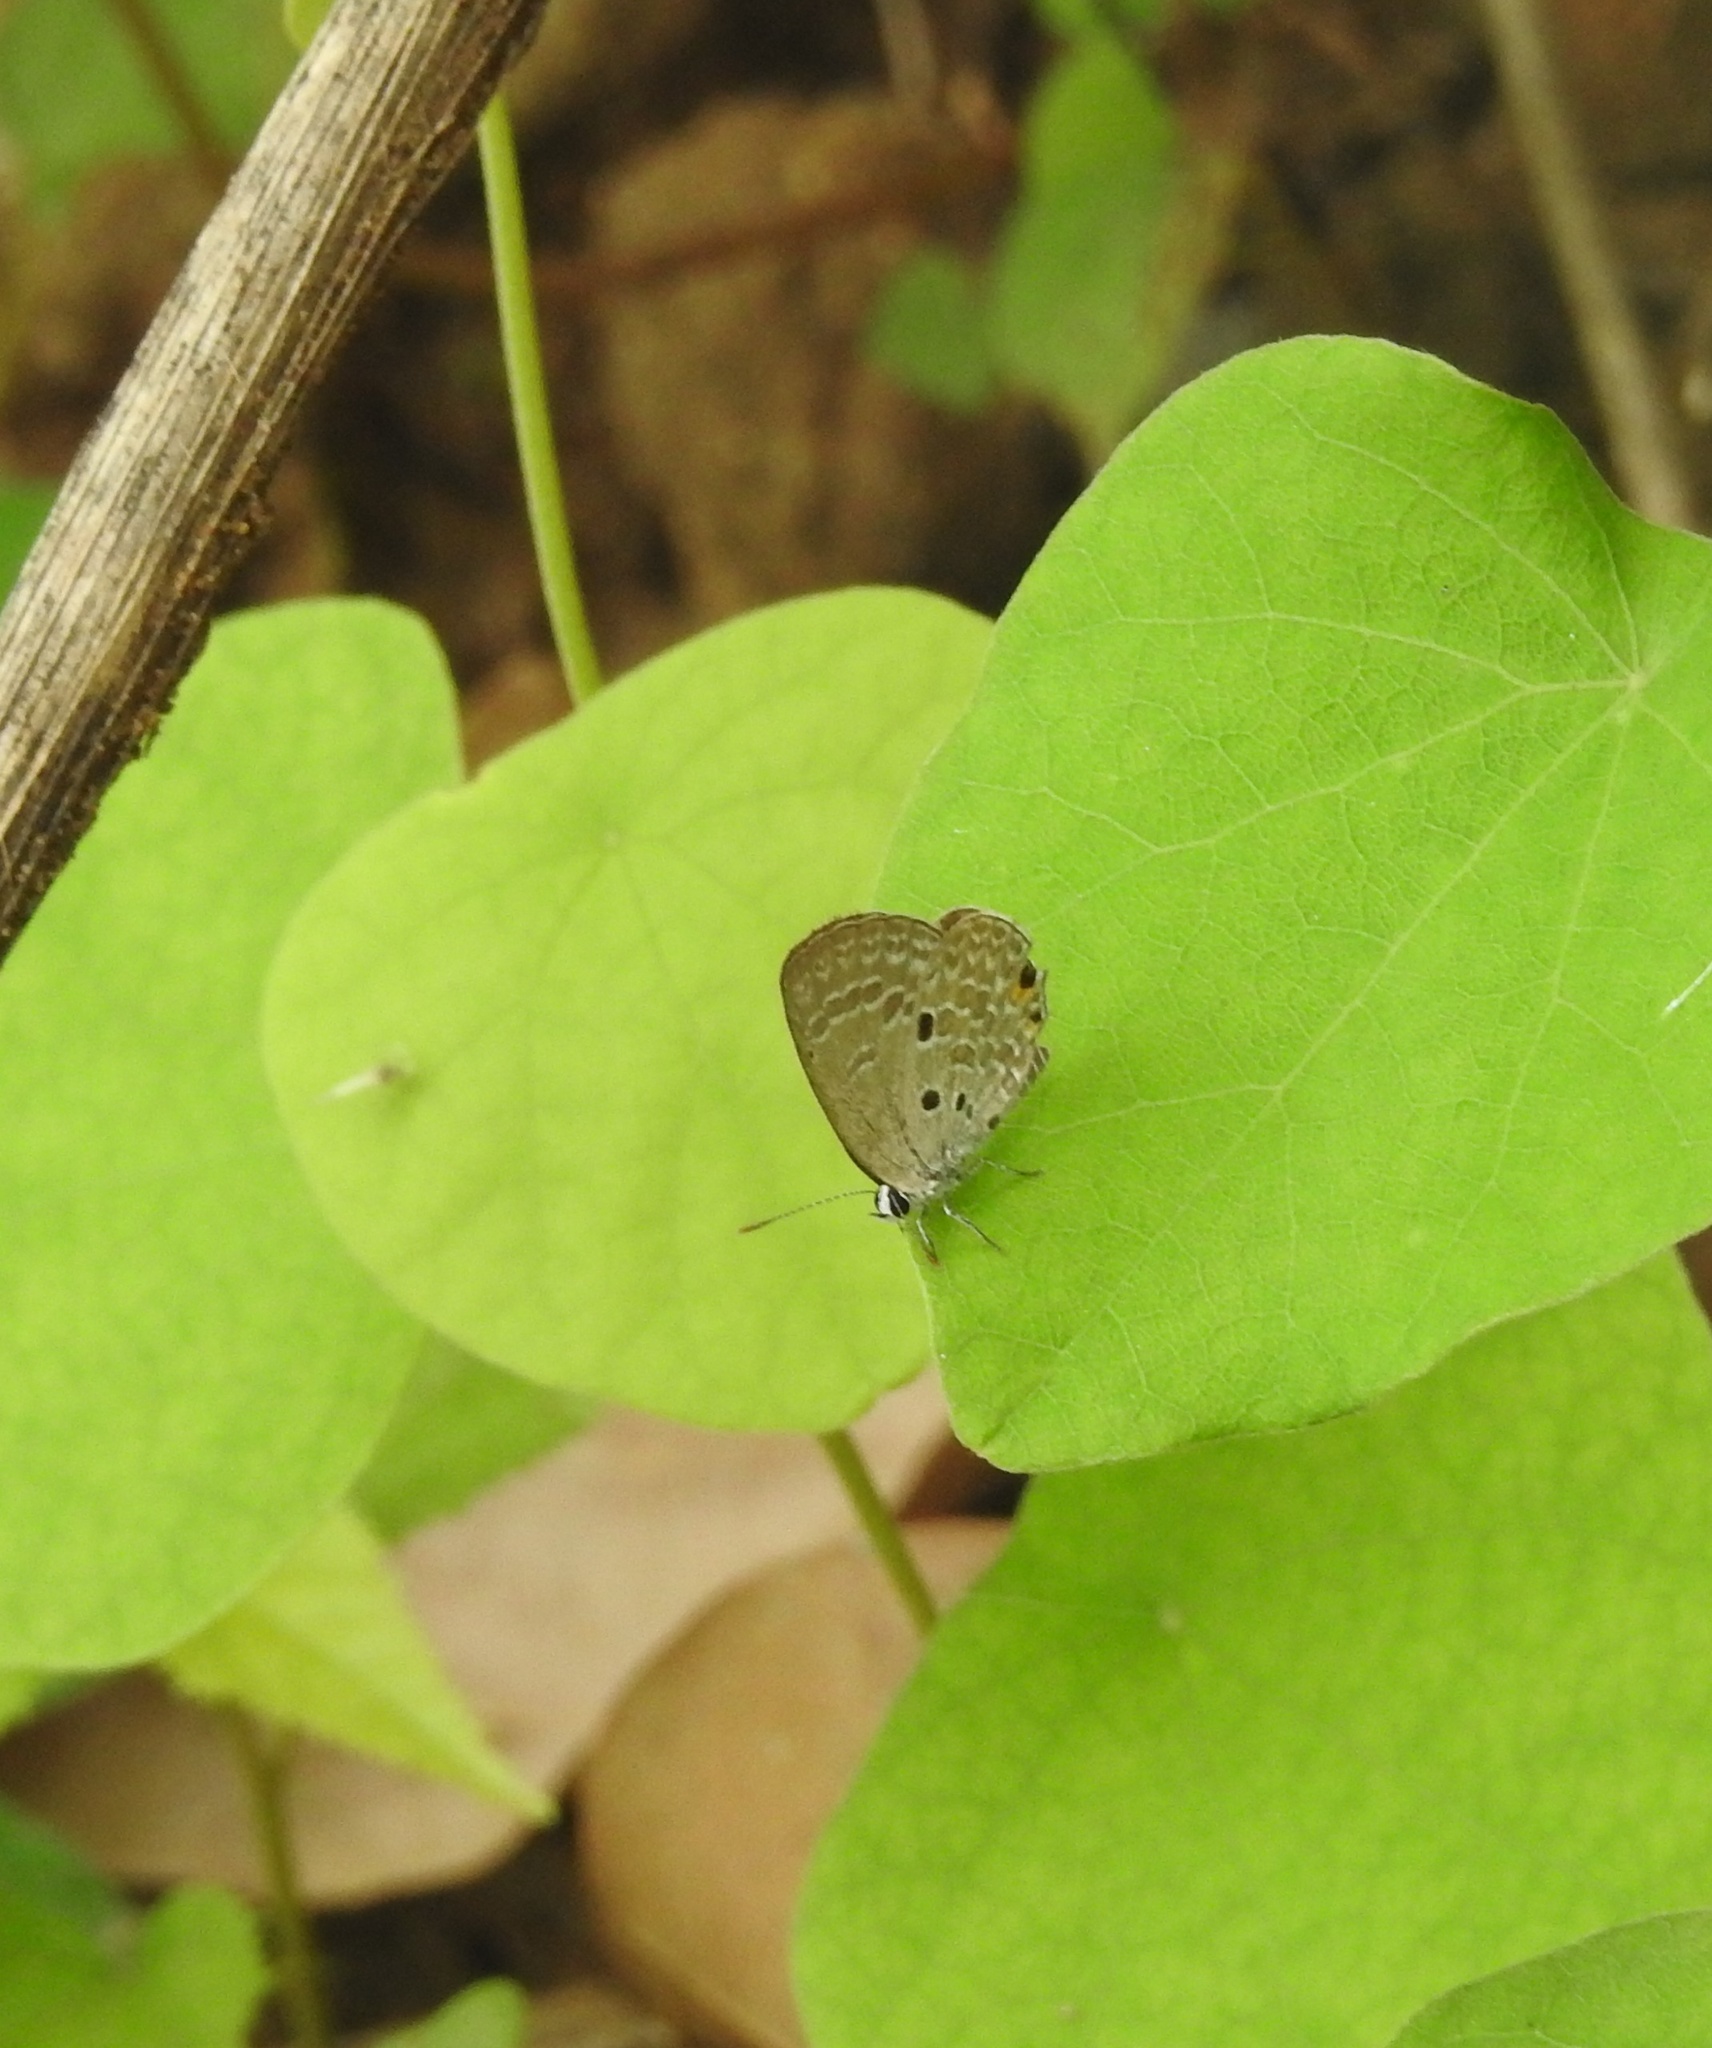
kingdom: Animalia
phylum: Arthropoda
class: Insecta
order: Lepidoptera
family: Lycaenidae
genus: Luthrodes
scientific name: Luthrodes pandava
